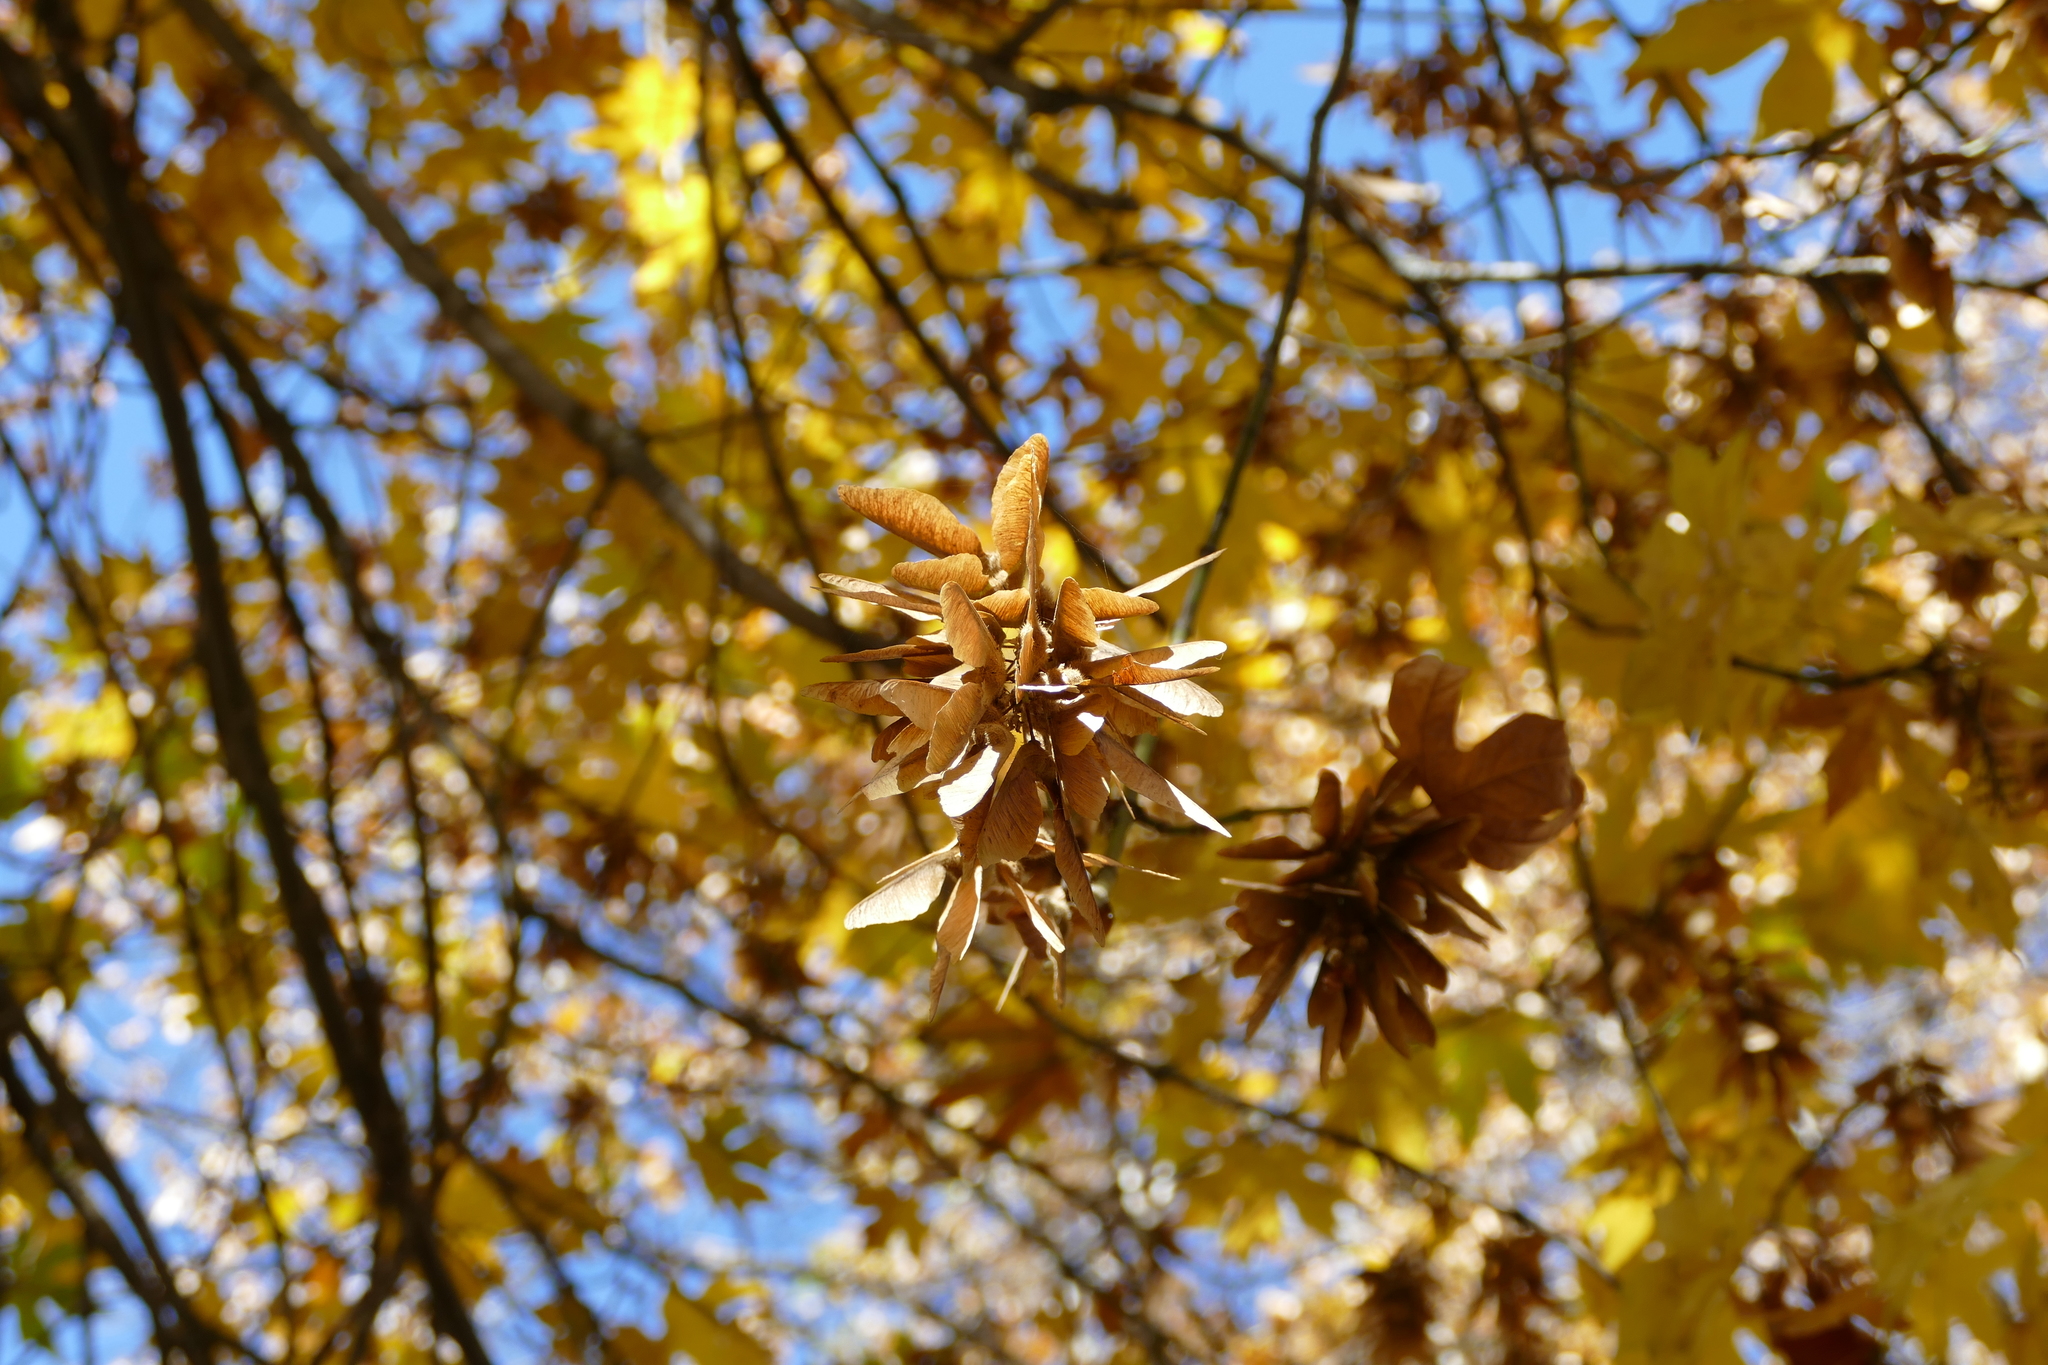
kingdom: Plantae
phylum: Tracheophyta
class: Magnoliopsida
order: Sapindales
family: Sapindaceae
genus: Acer
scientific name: Acer macrophyllum
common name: Oregon maple
